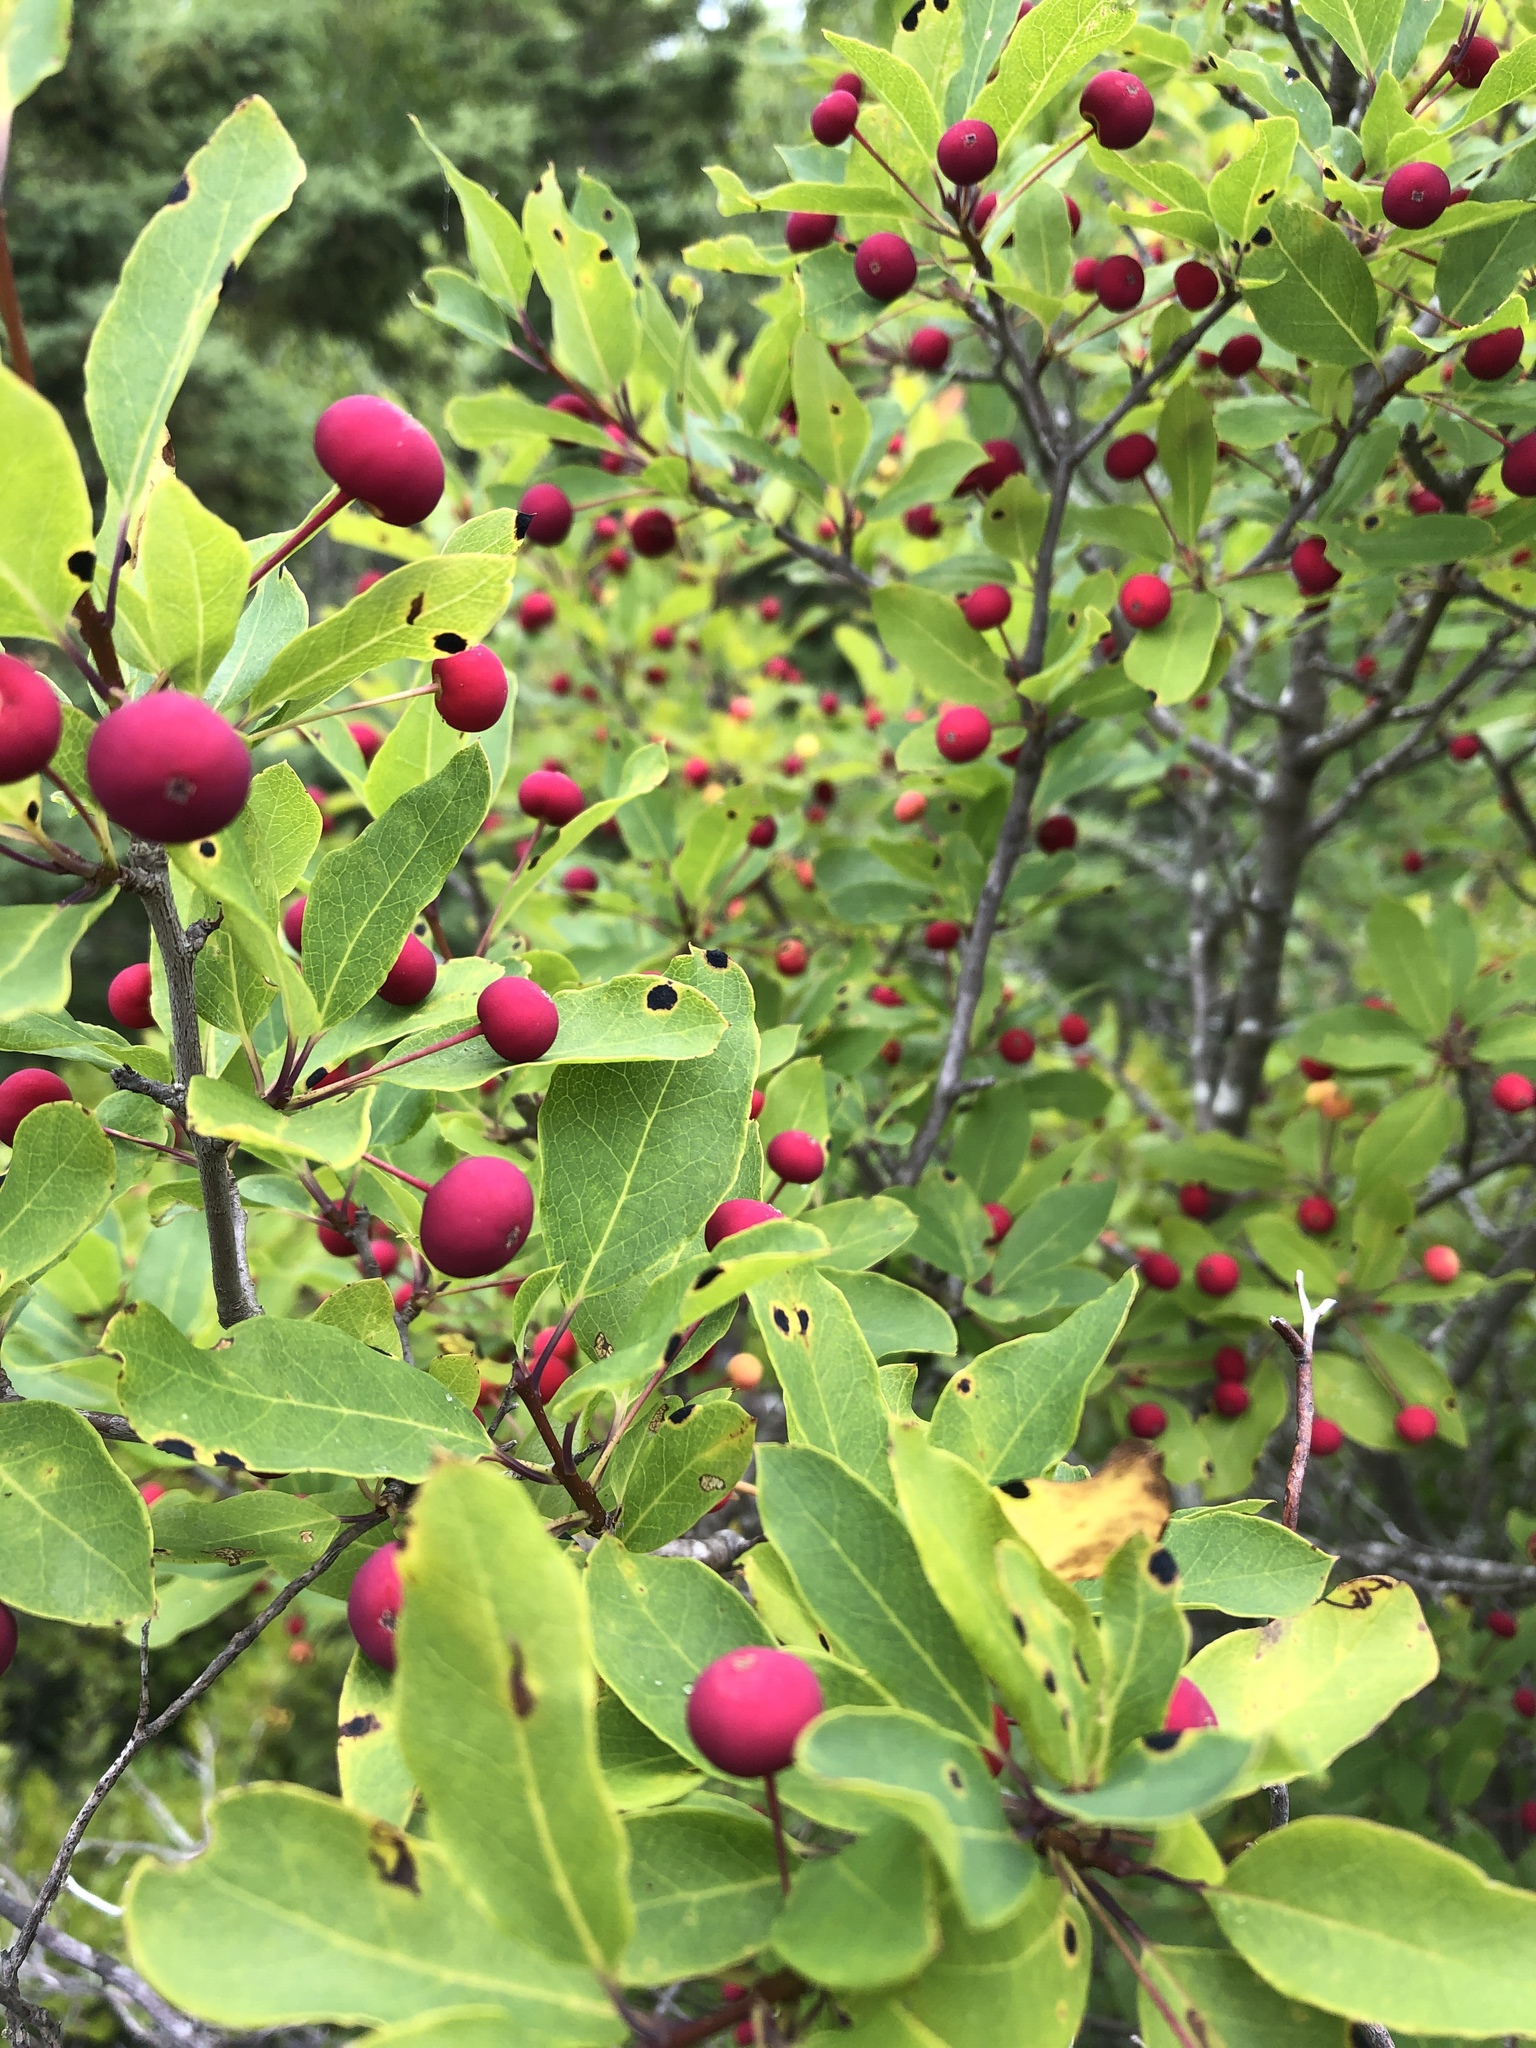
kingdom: Plantae
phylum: Tracheophyta
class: Magnoliopsida
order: Aquifoliales
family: Aquifoliaceae
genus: Ilex
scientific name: Ilex mucronata
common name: Catberry
